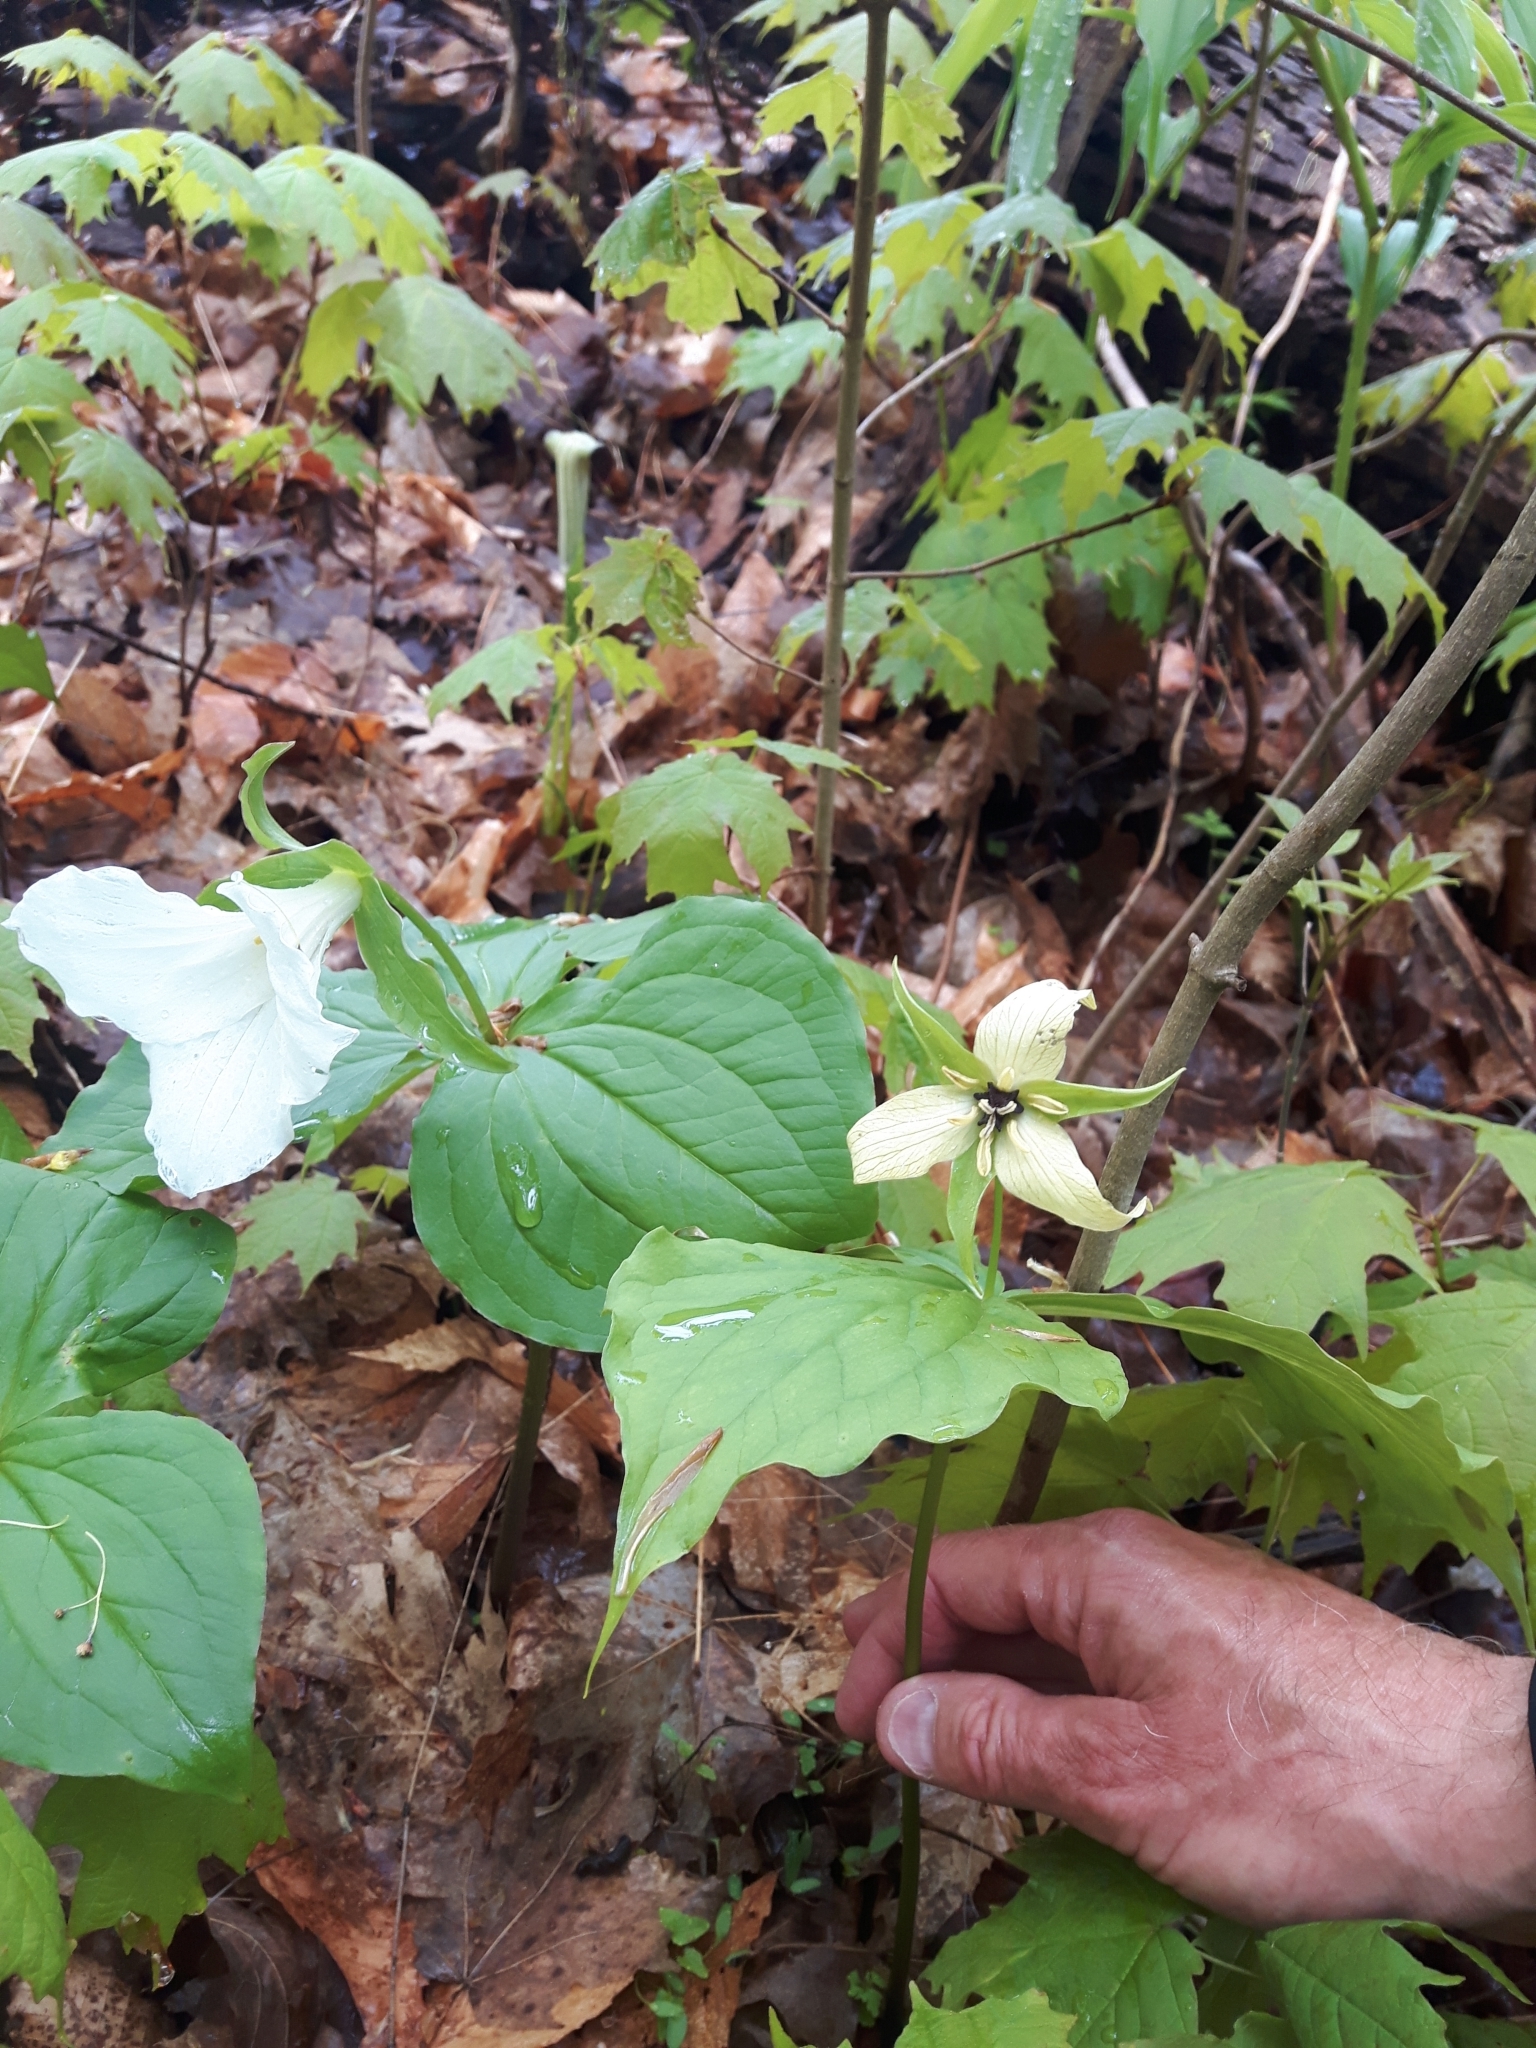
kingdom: Plantae
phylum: Tracheophyta
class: Liliopsida
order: Liliales
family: Melanthiaceae
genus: Trillium
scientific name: Trillium erectum
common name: Purple trillium
